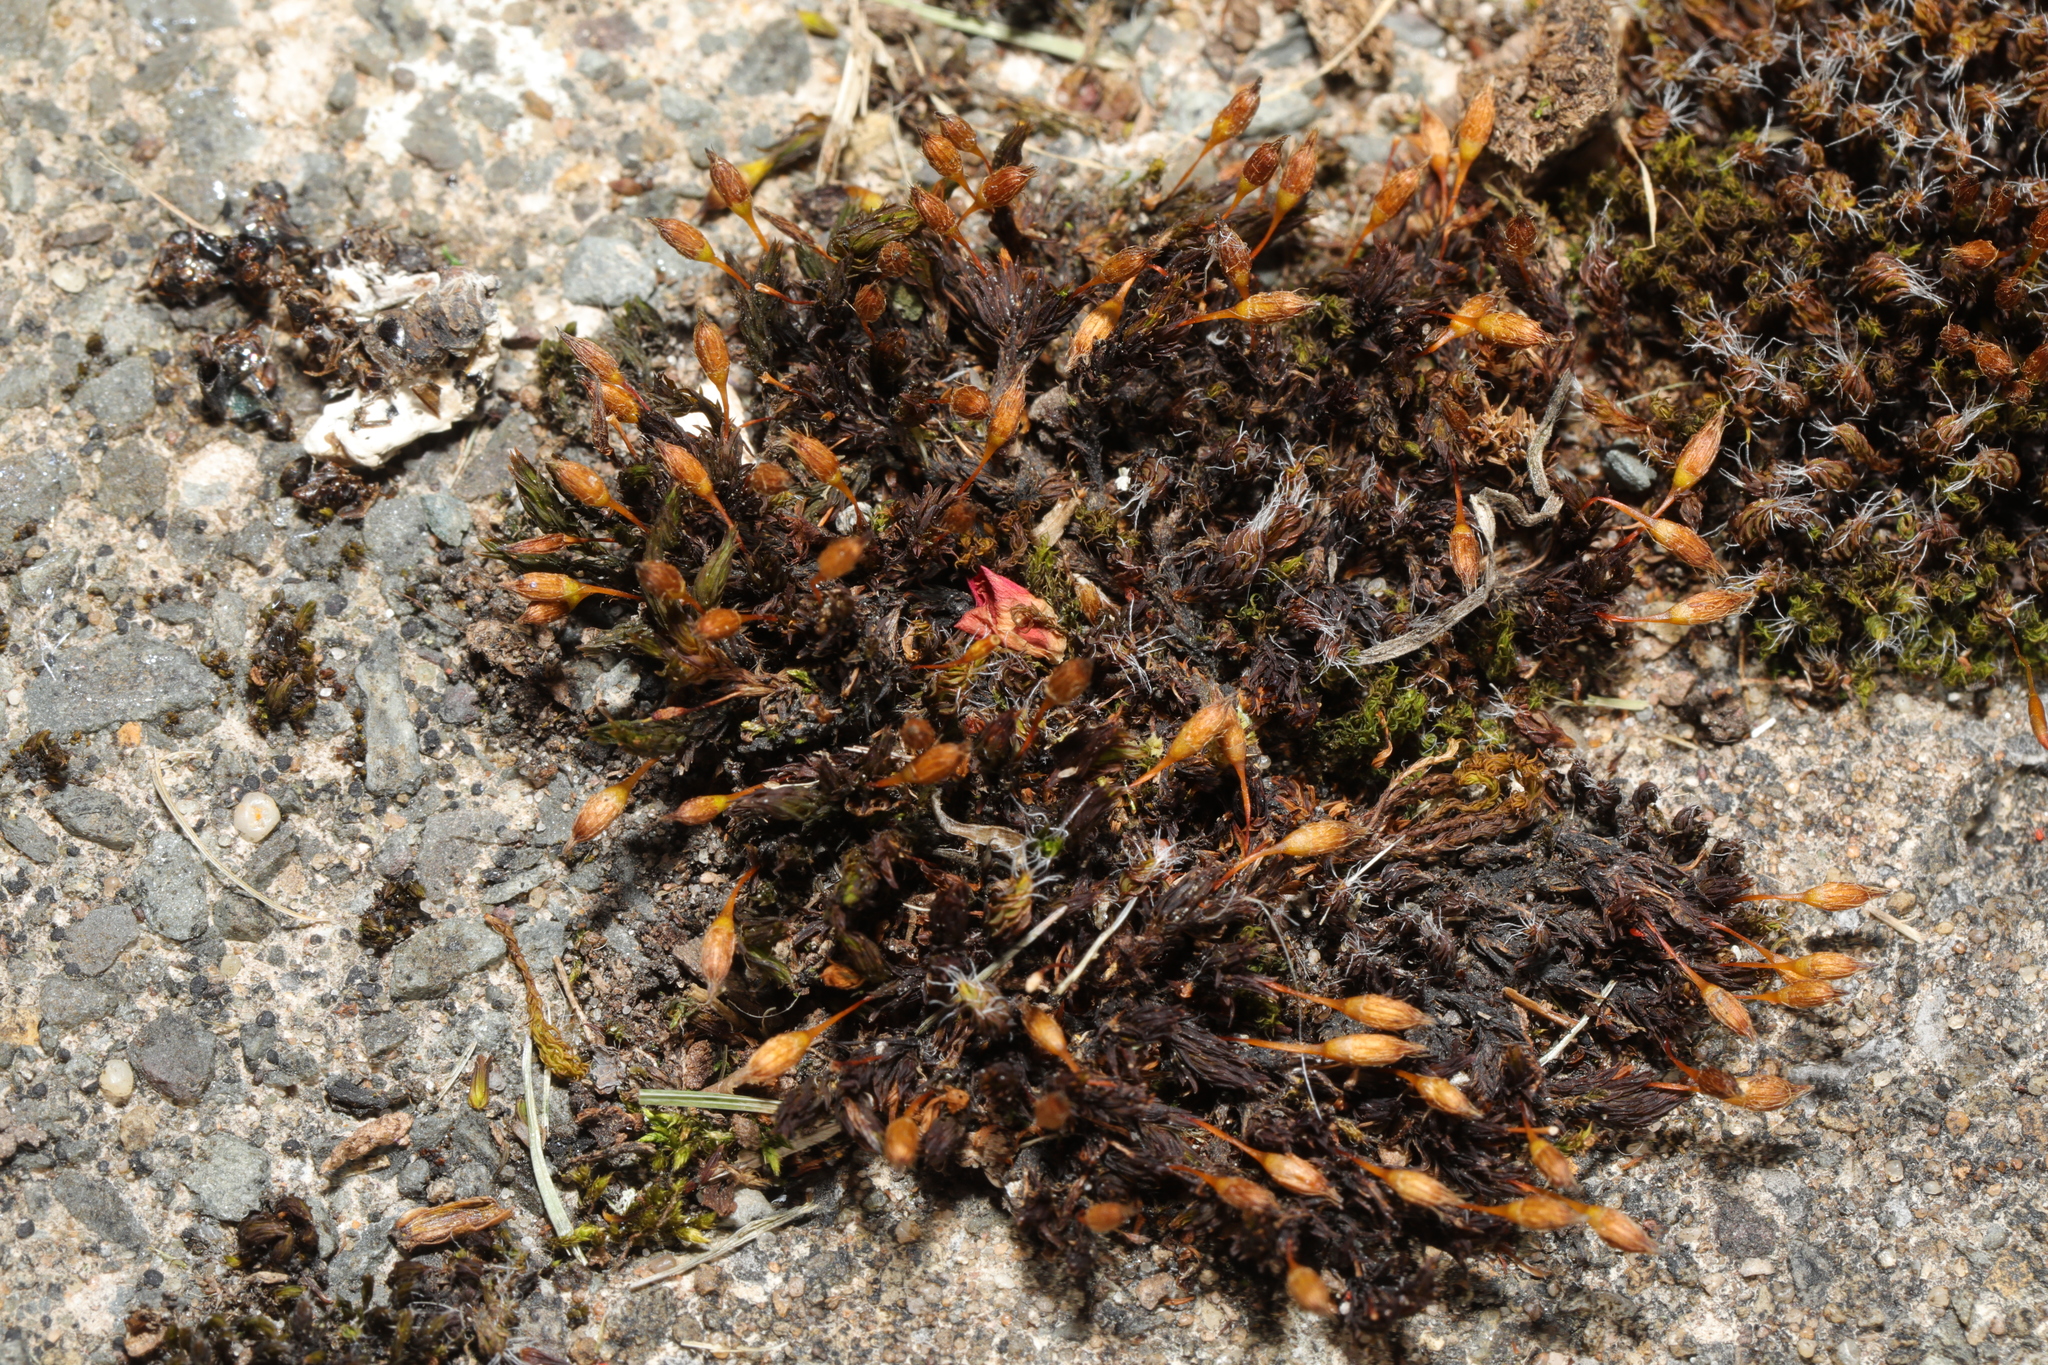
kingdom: Plantae
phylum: Bryophyta
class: Bryopsida
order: Orthotrichales
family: Orthotrichaceae
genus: Orthotrichum
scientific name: Orthotrichum anomalum
